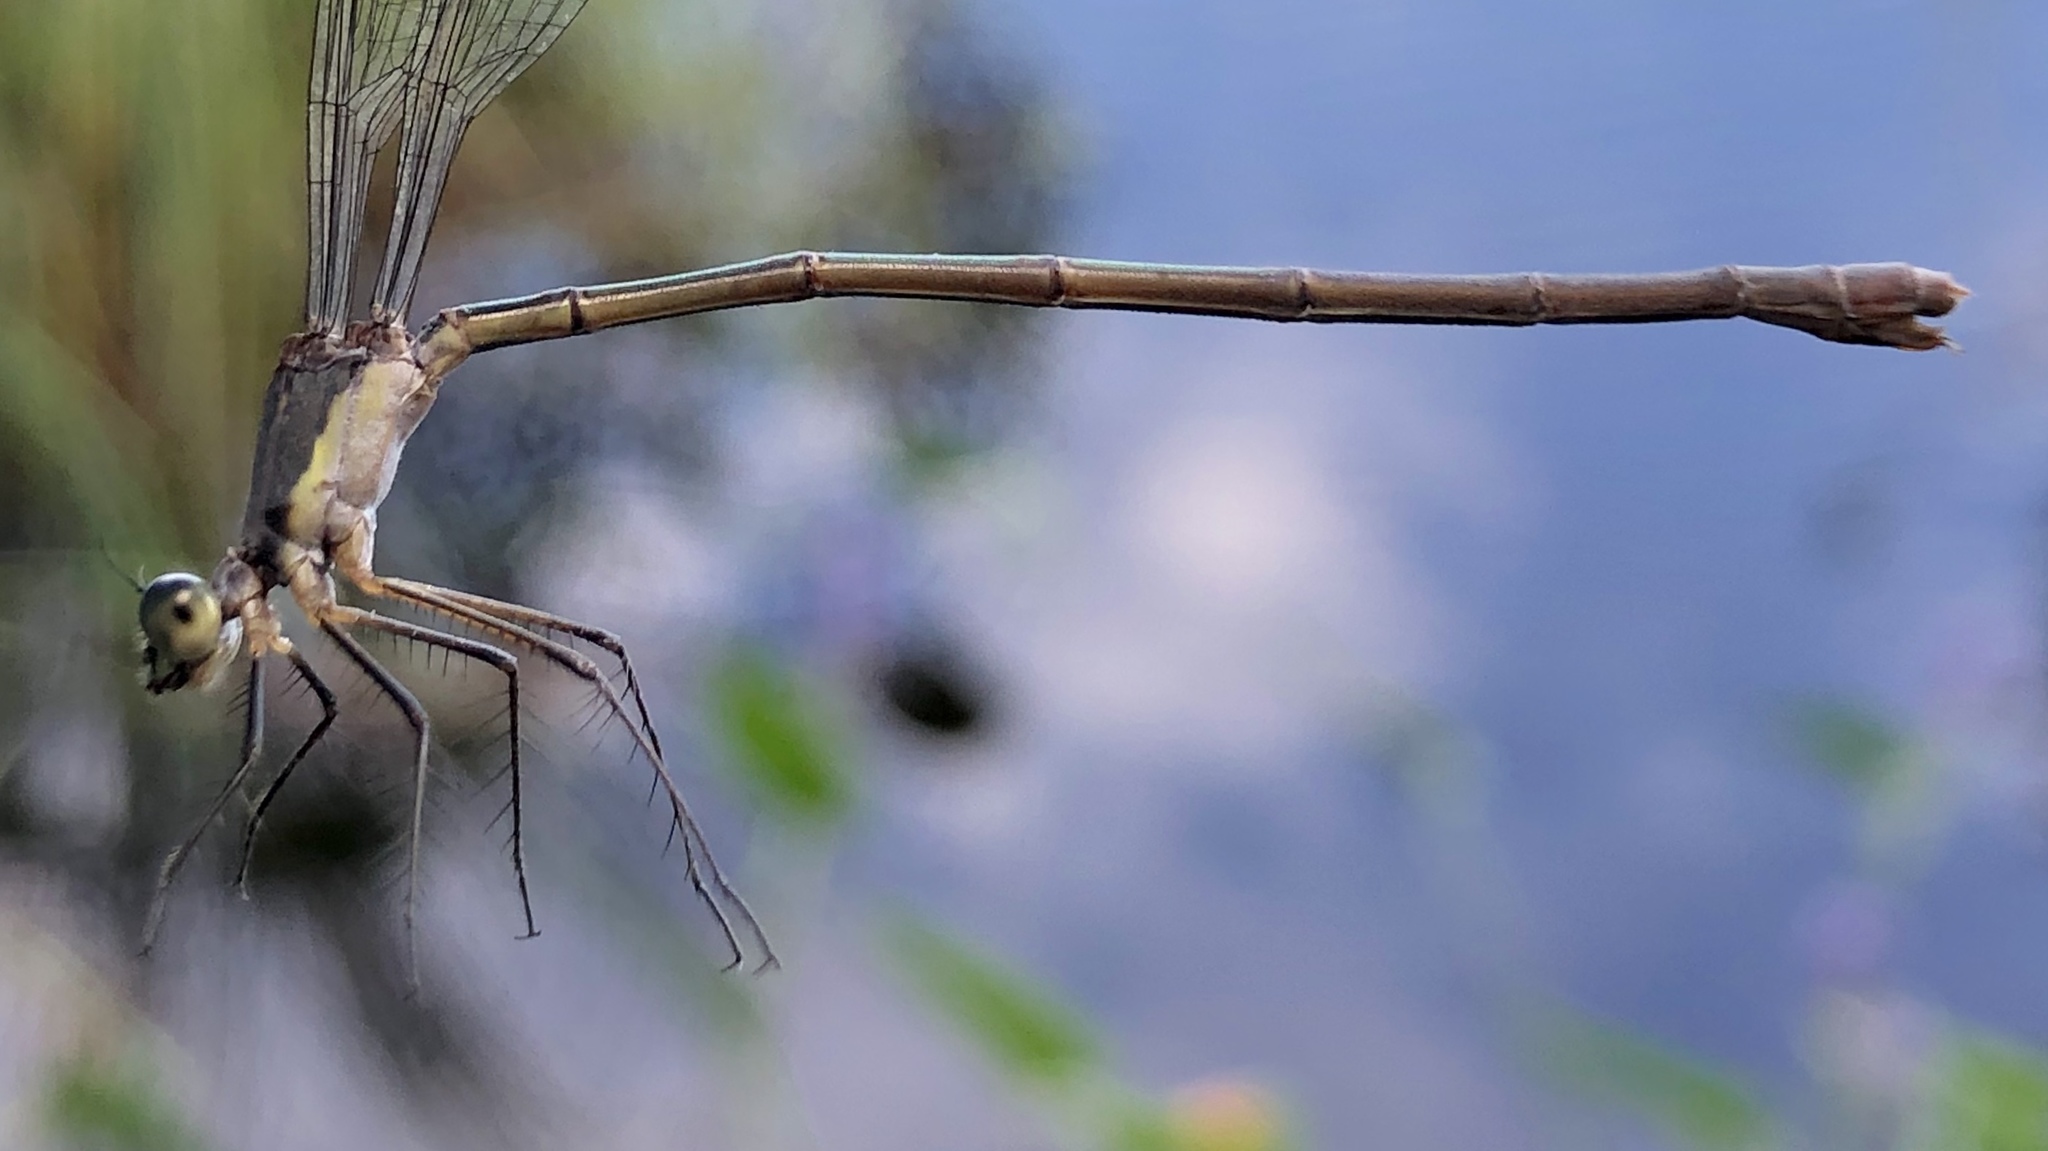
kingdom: Animalia
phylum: Arthropoda
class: Insecta
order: Odonata
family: Lestidae
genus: Lestes
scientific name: Lestes vigilax
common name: Swamp spreadwing
